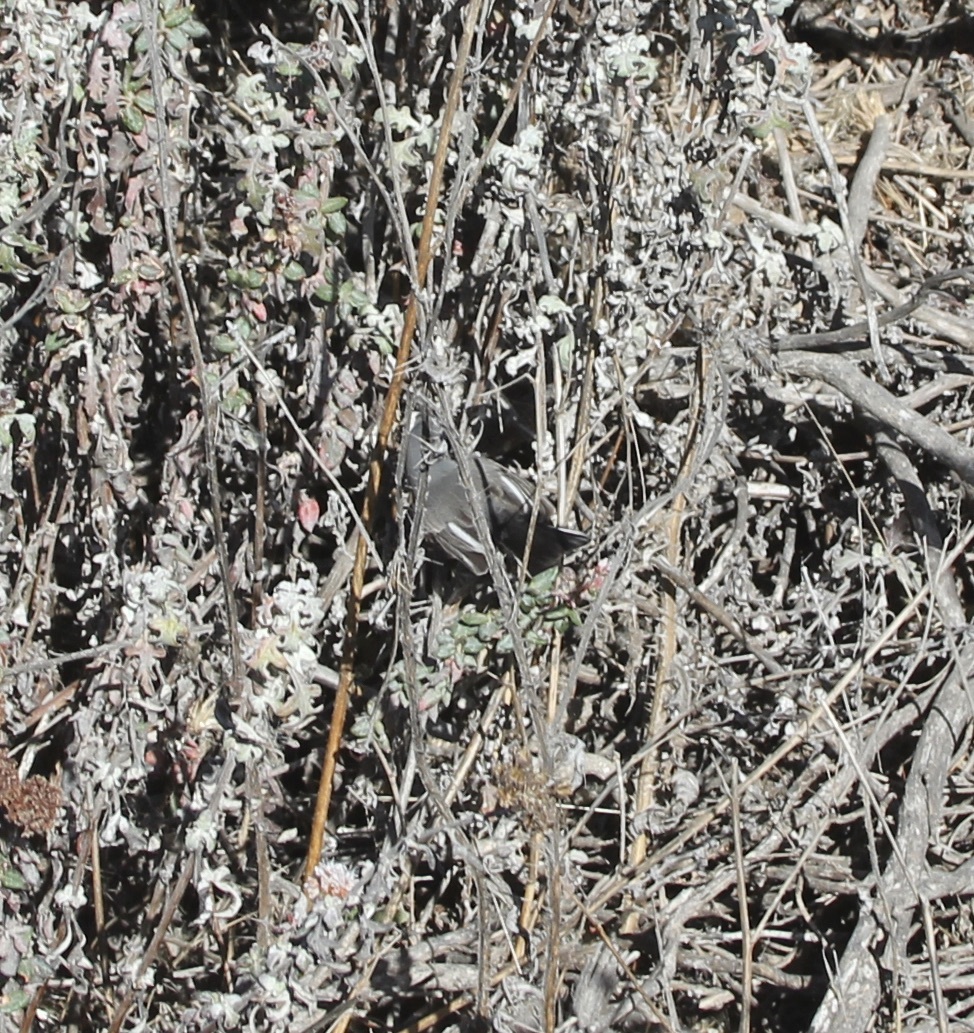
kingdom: Animalia
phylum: Chordata
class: Aves
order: Passeriformes
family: Polioptilidae
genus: Polioptila
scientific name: Polioptila caerulea
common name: Blue-gray gnatcatcher
